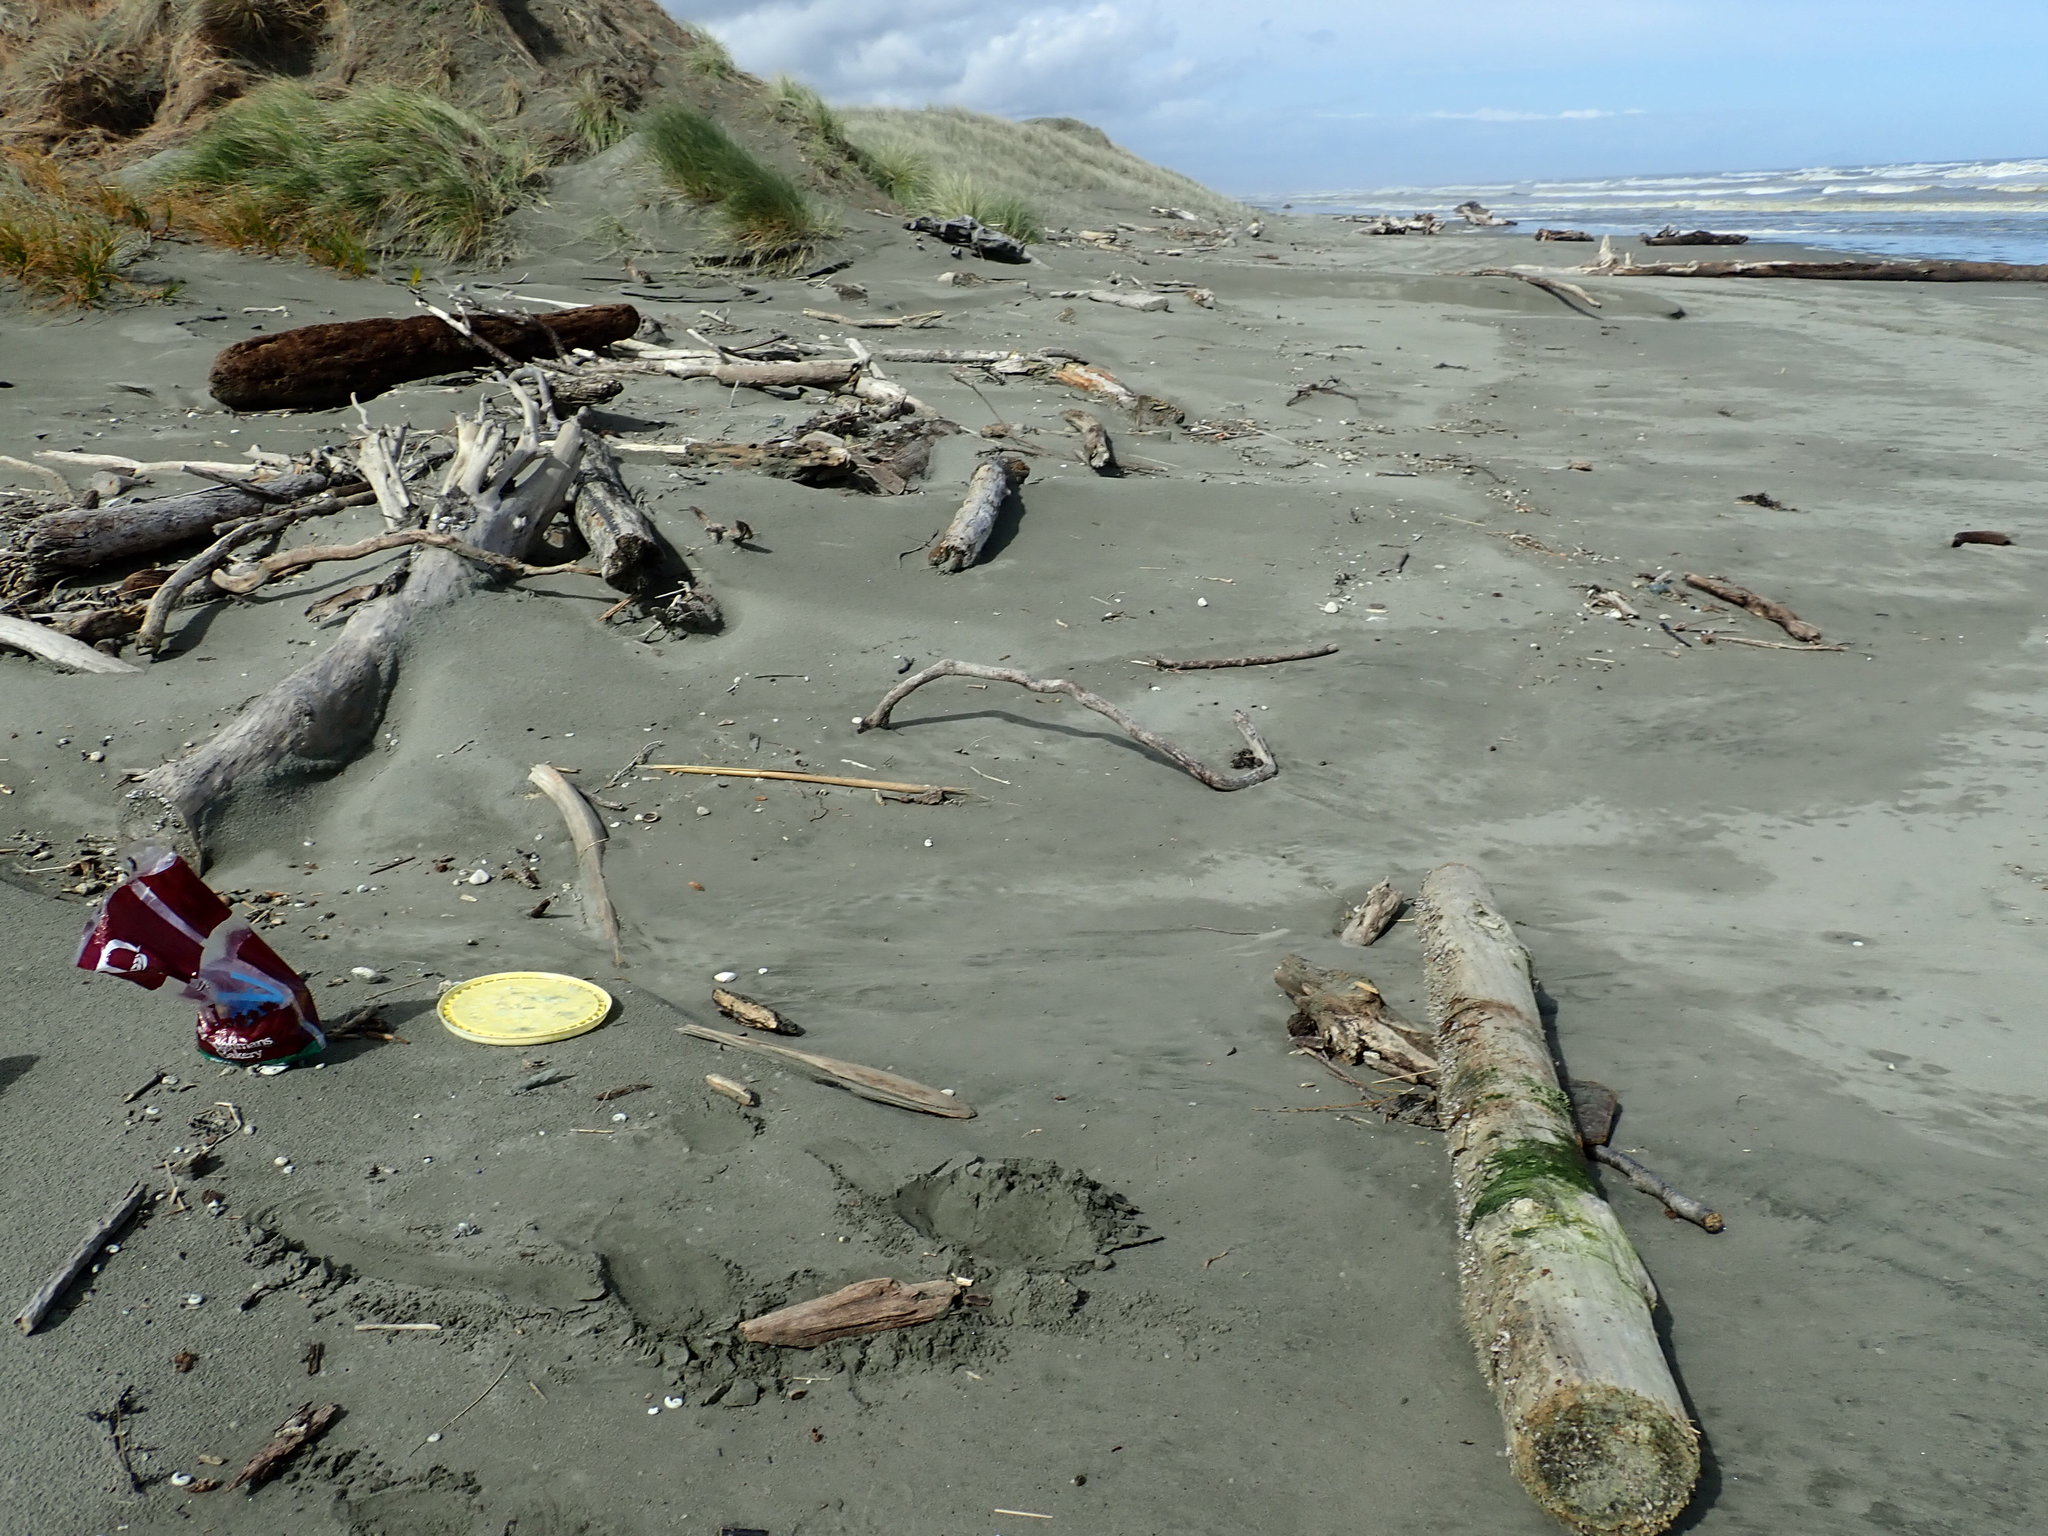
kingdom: Animalia
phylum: Arthropoda
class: Maxillopoda
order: Pedunculata
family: Lepadidae
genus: Lepas
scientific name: Lepas pectinata
